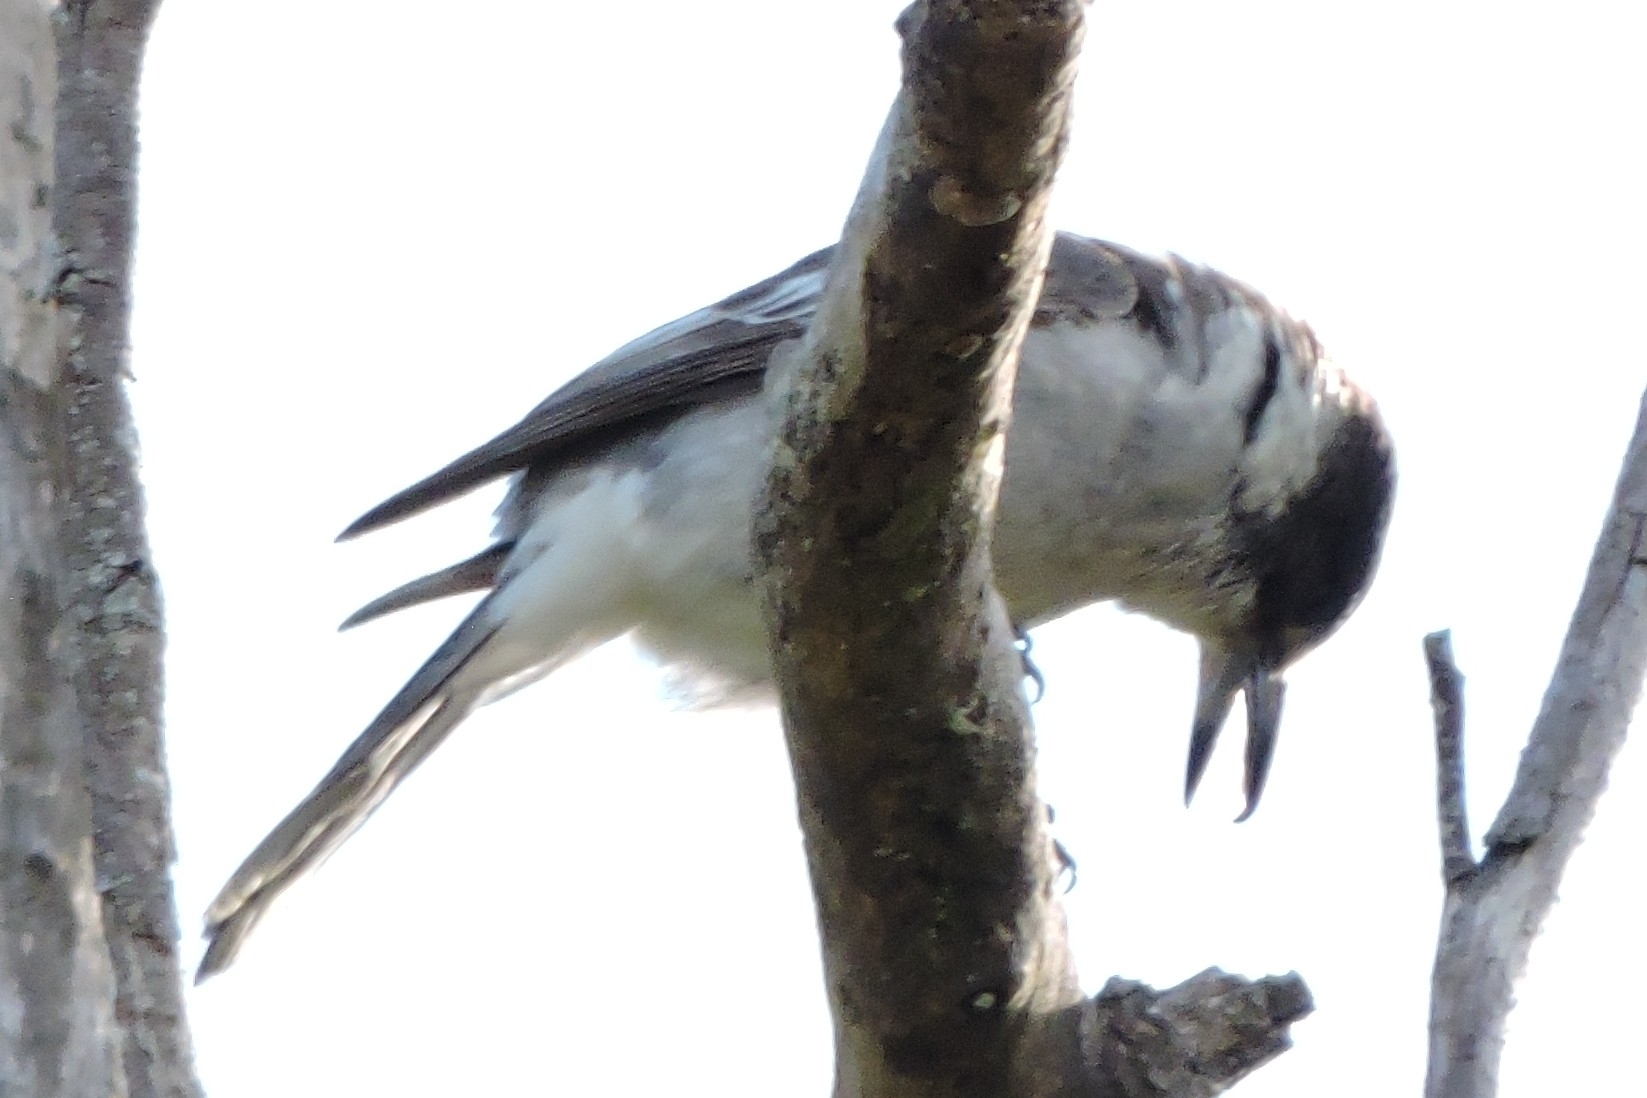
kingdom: Animalia
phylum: Chordata
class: Aves
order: Passeriformes
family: Cracticidae
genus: Cracticus
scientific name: Cracticus torquatus
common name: Grey butcherbird
